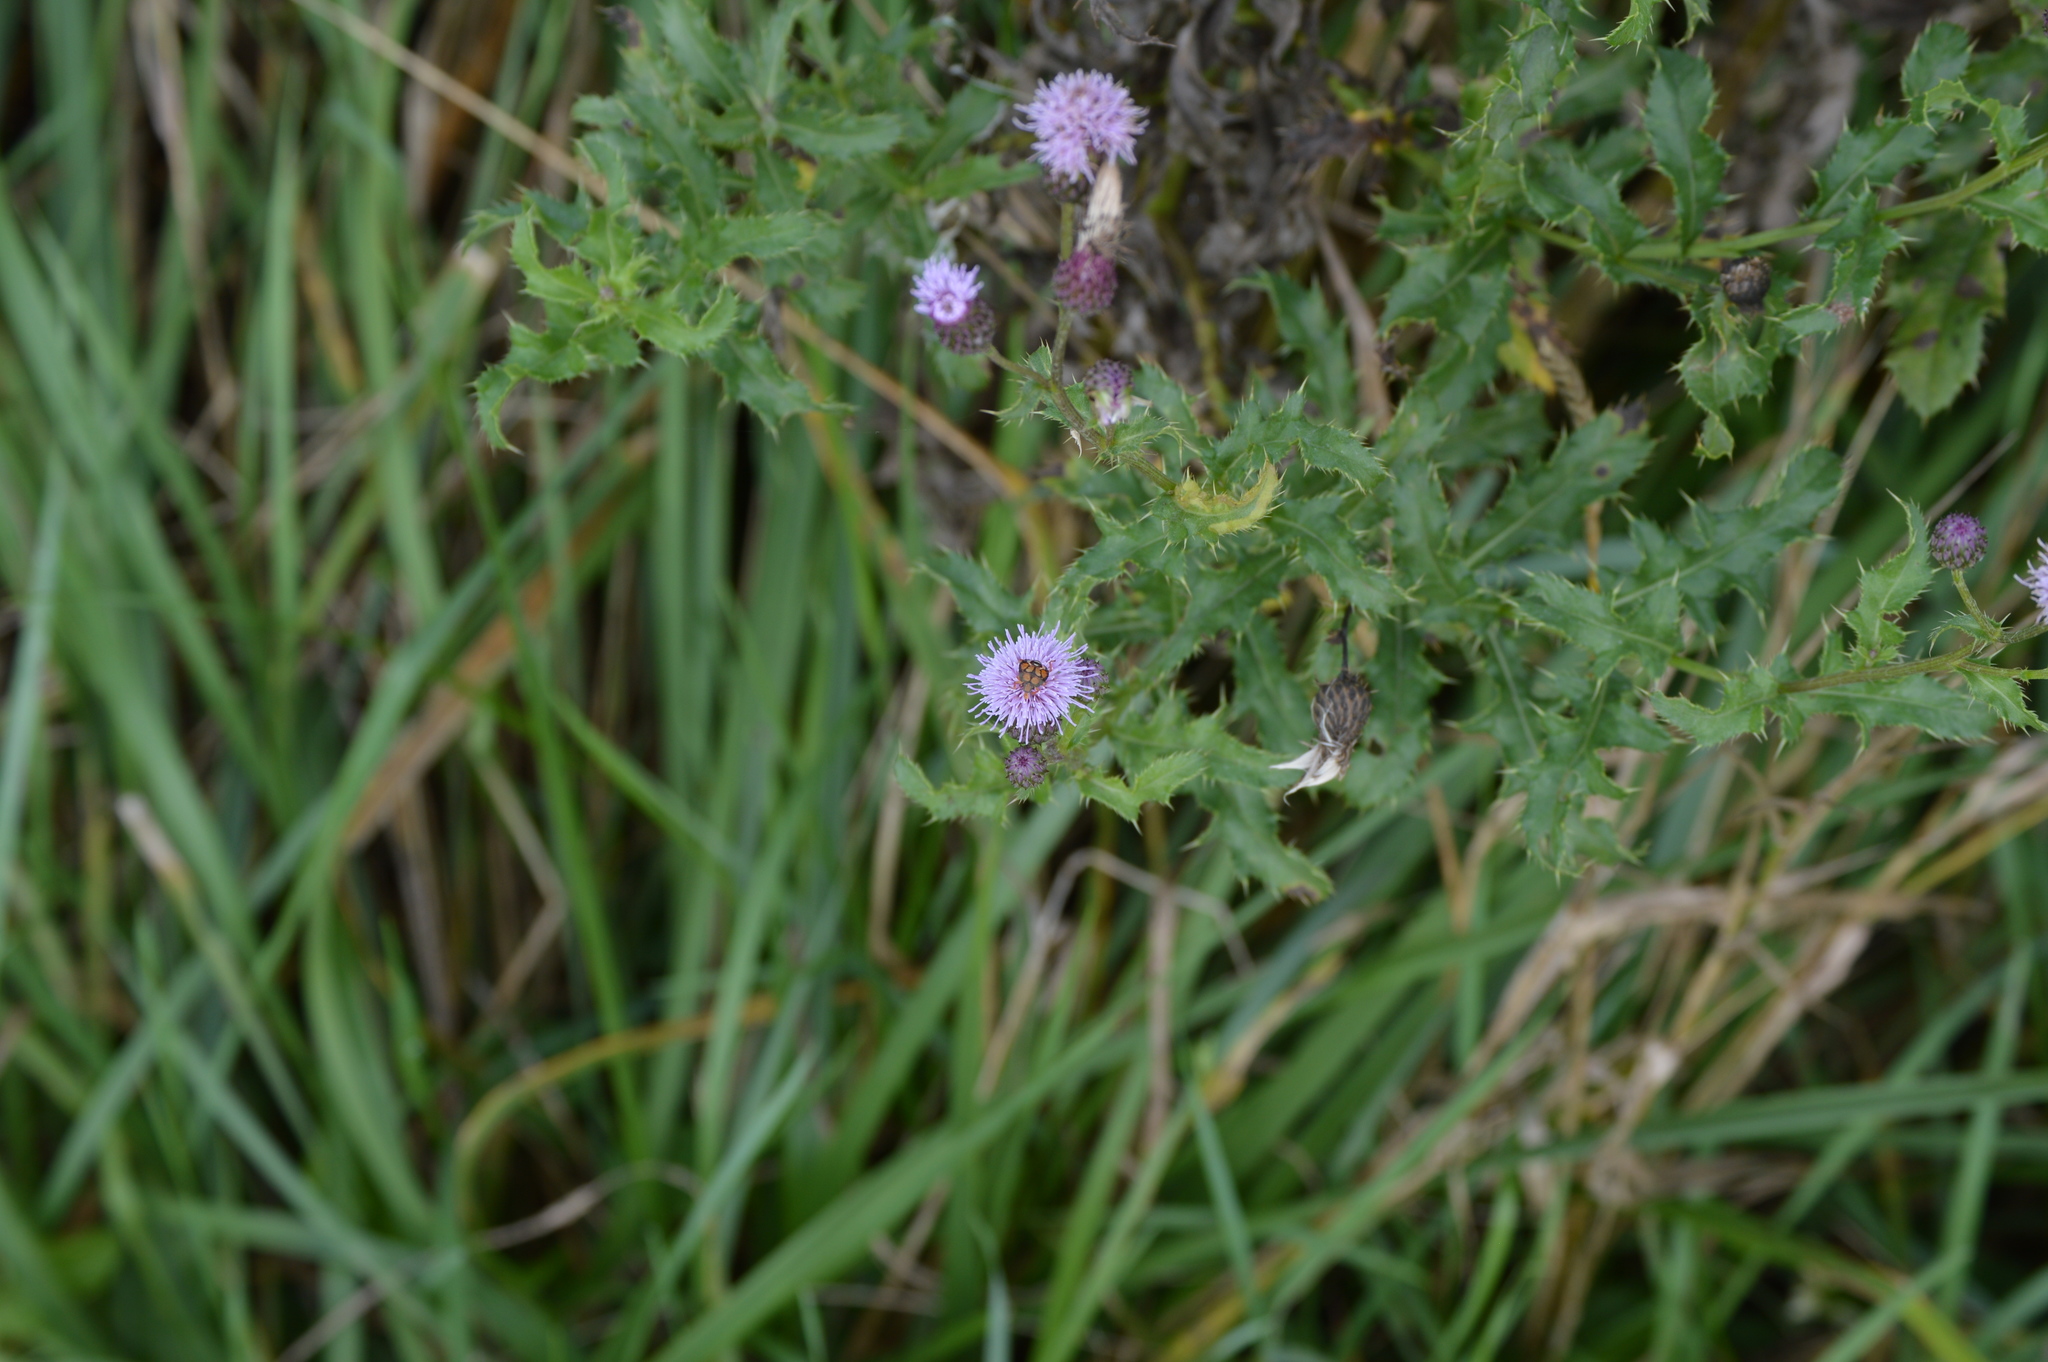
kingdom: Plantae
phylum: Tracheophyta
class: Magnoliopsida
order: Asterales
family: Asteraceae
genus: Cirsium
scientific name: Cirsium arvense
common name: Creeping thistle
